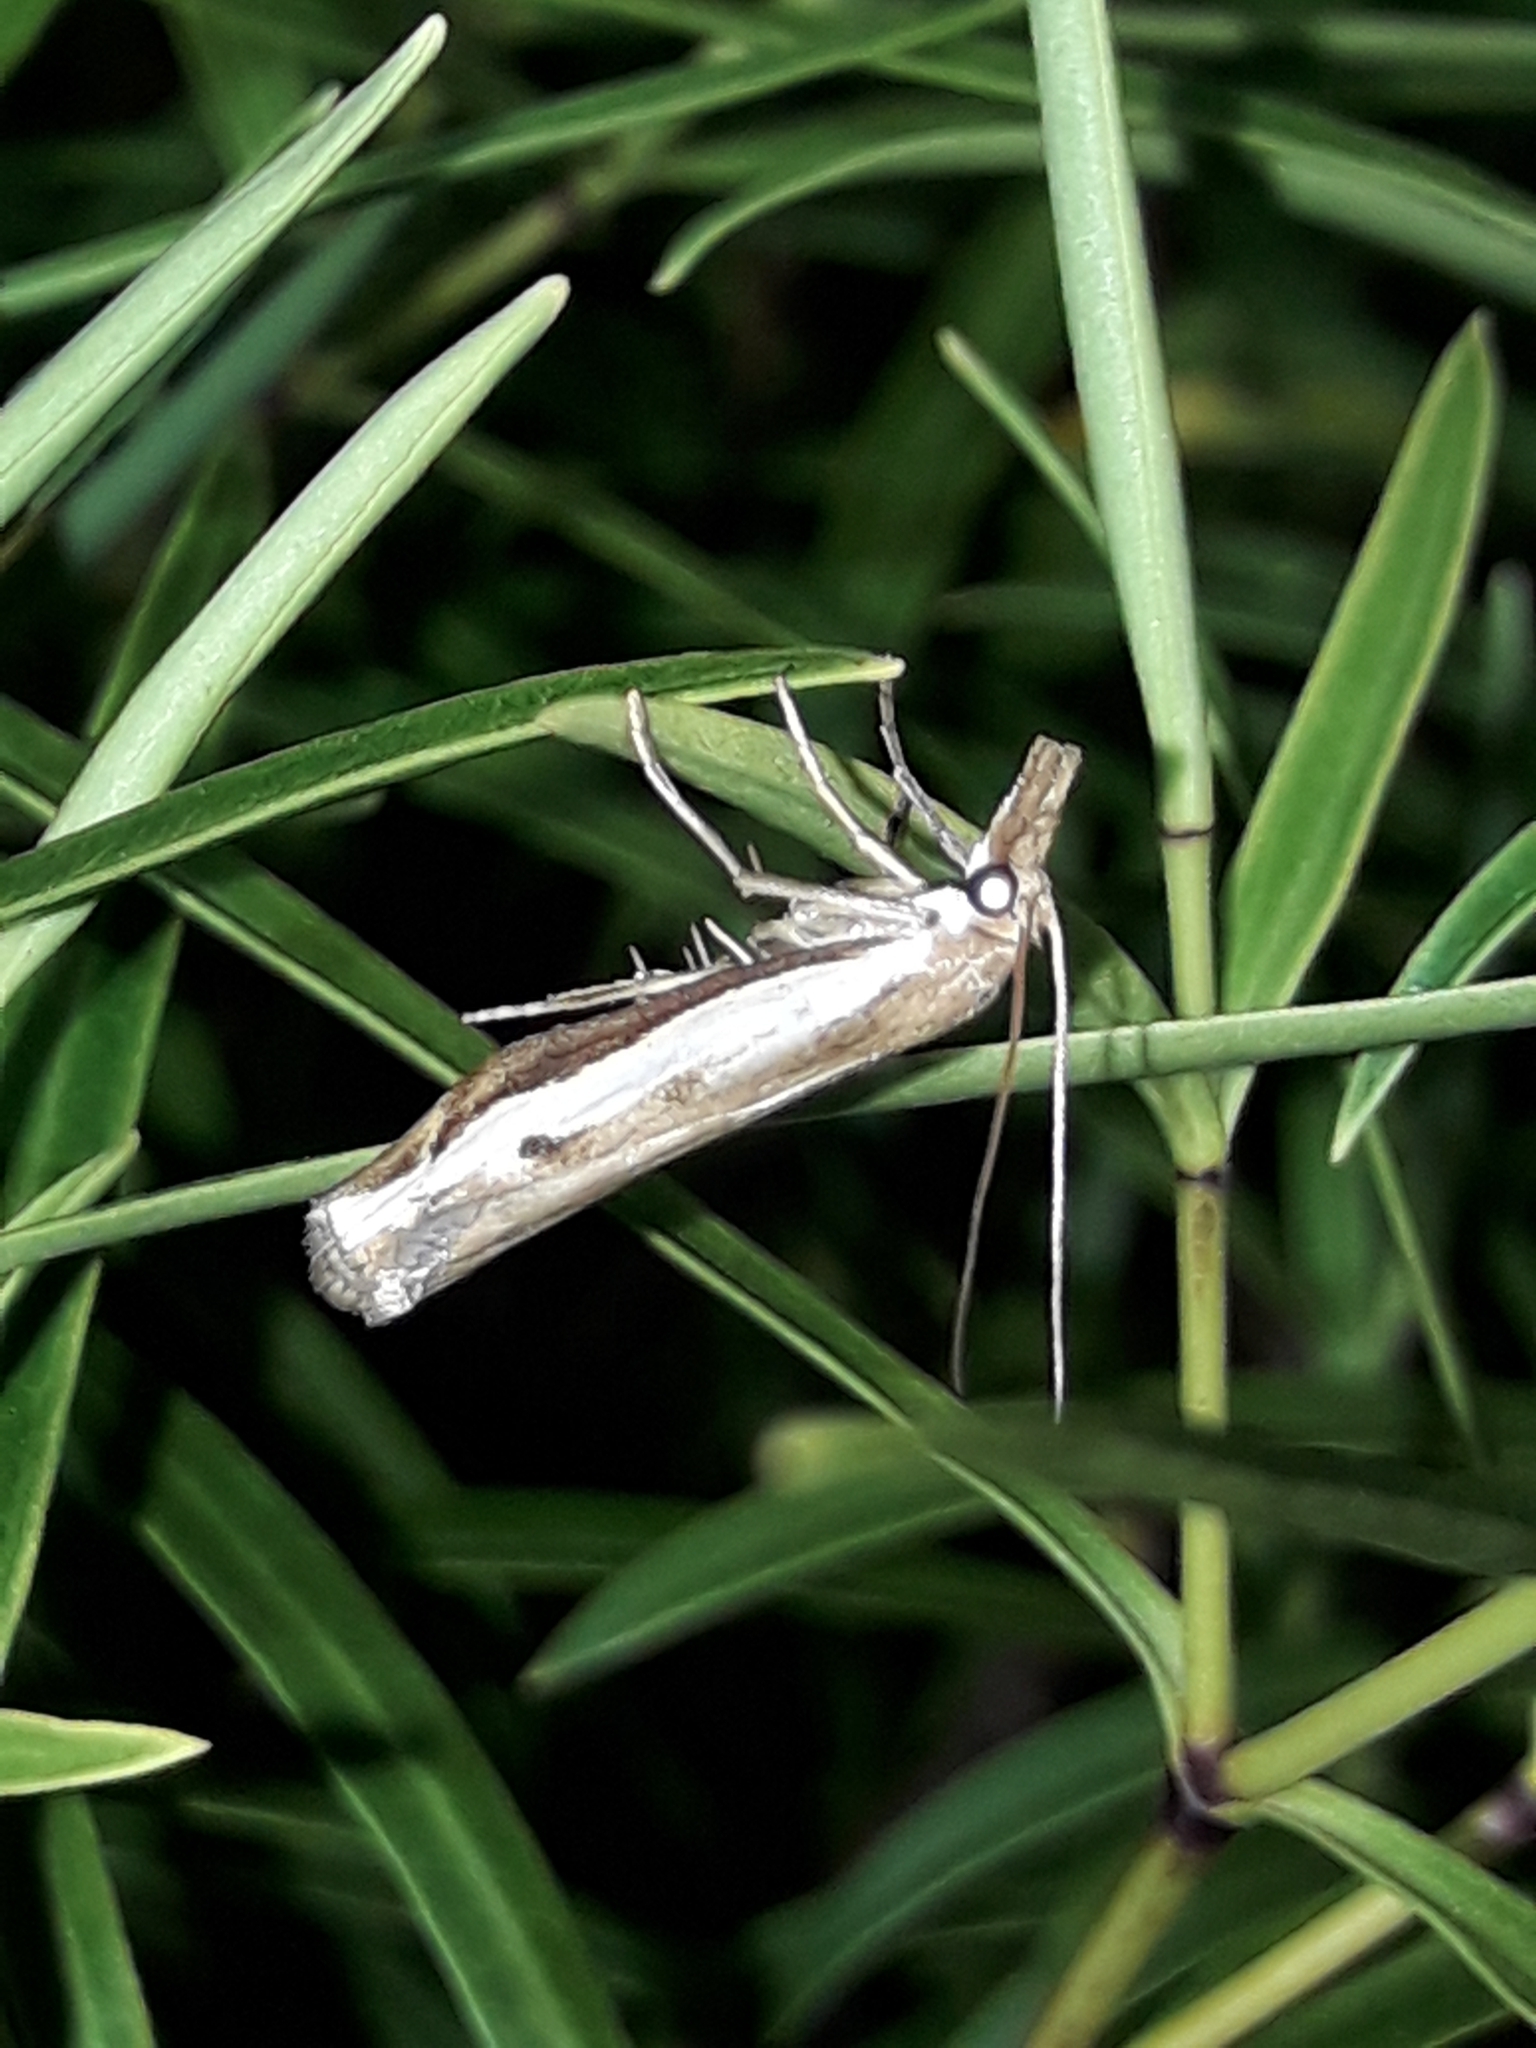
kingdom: Animalia
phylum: Arthropoda
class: Insecta
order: Lepidoptera
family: Crambidae
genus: Orocrambus
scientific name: Orocrambus flexuosellus
